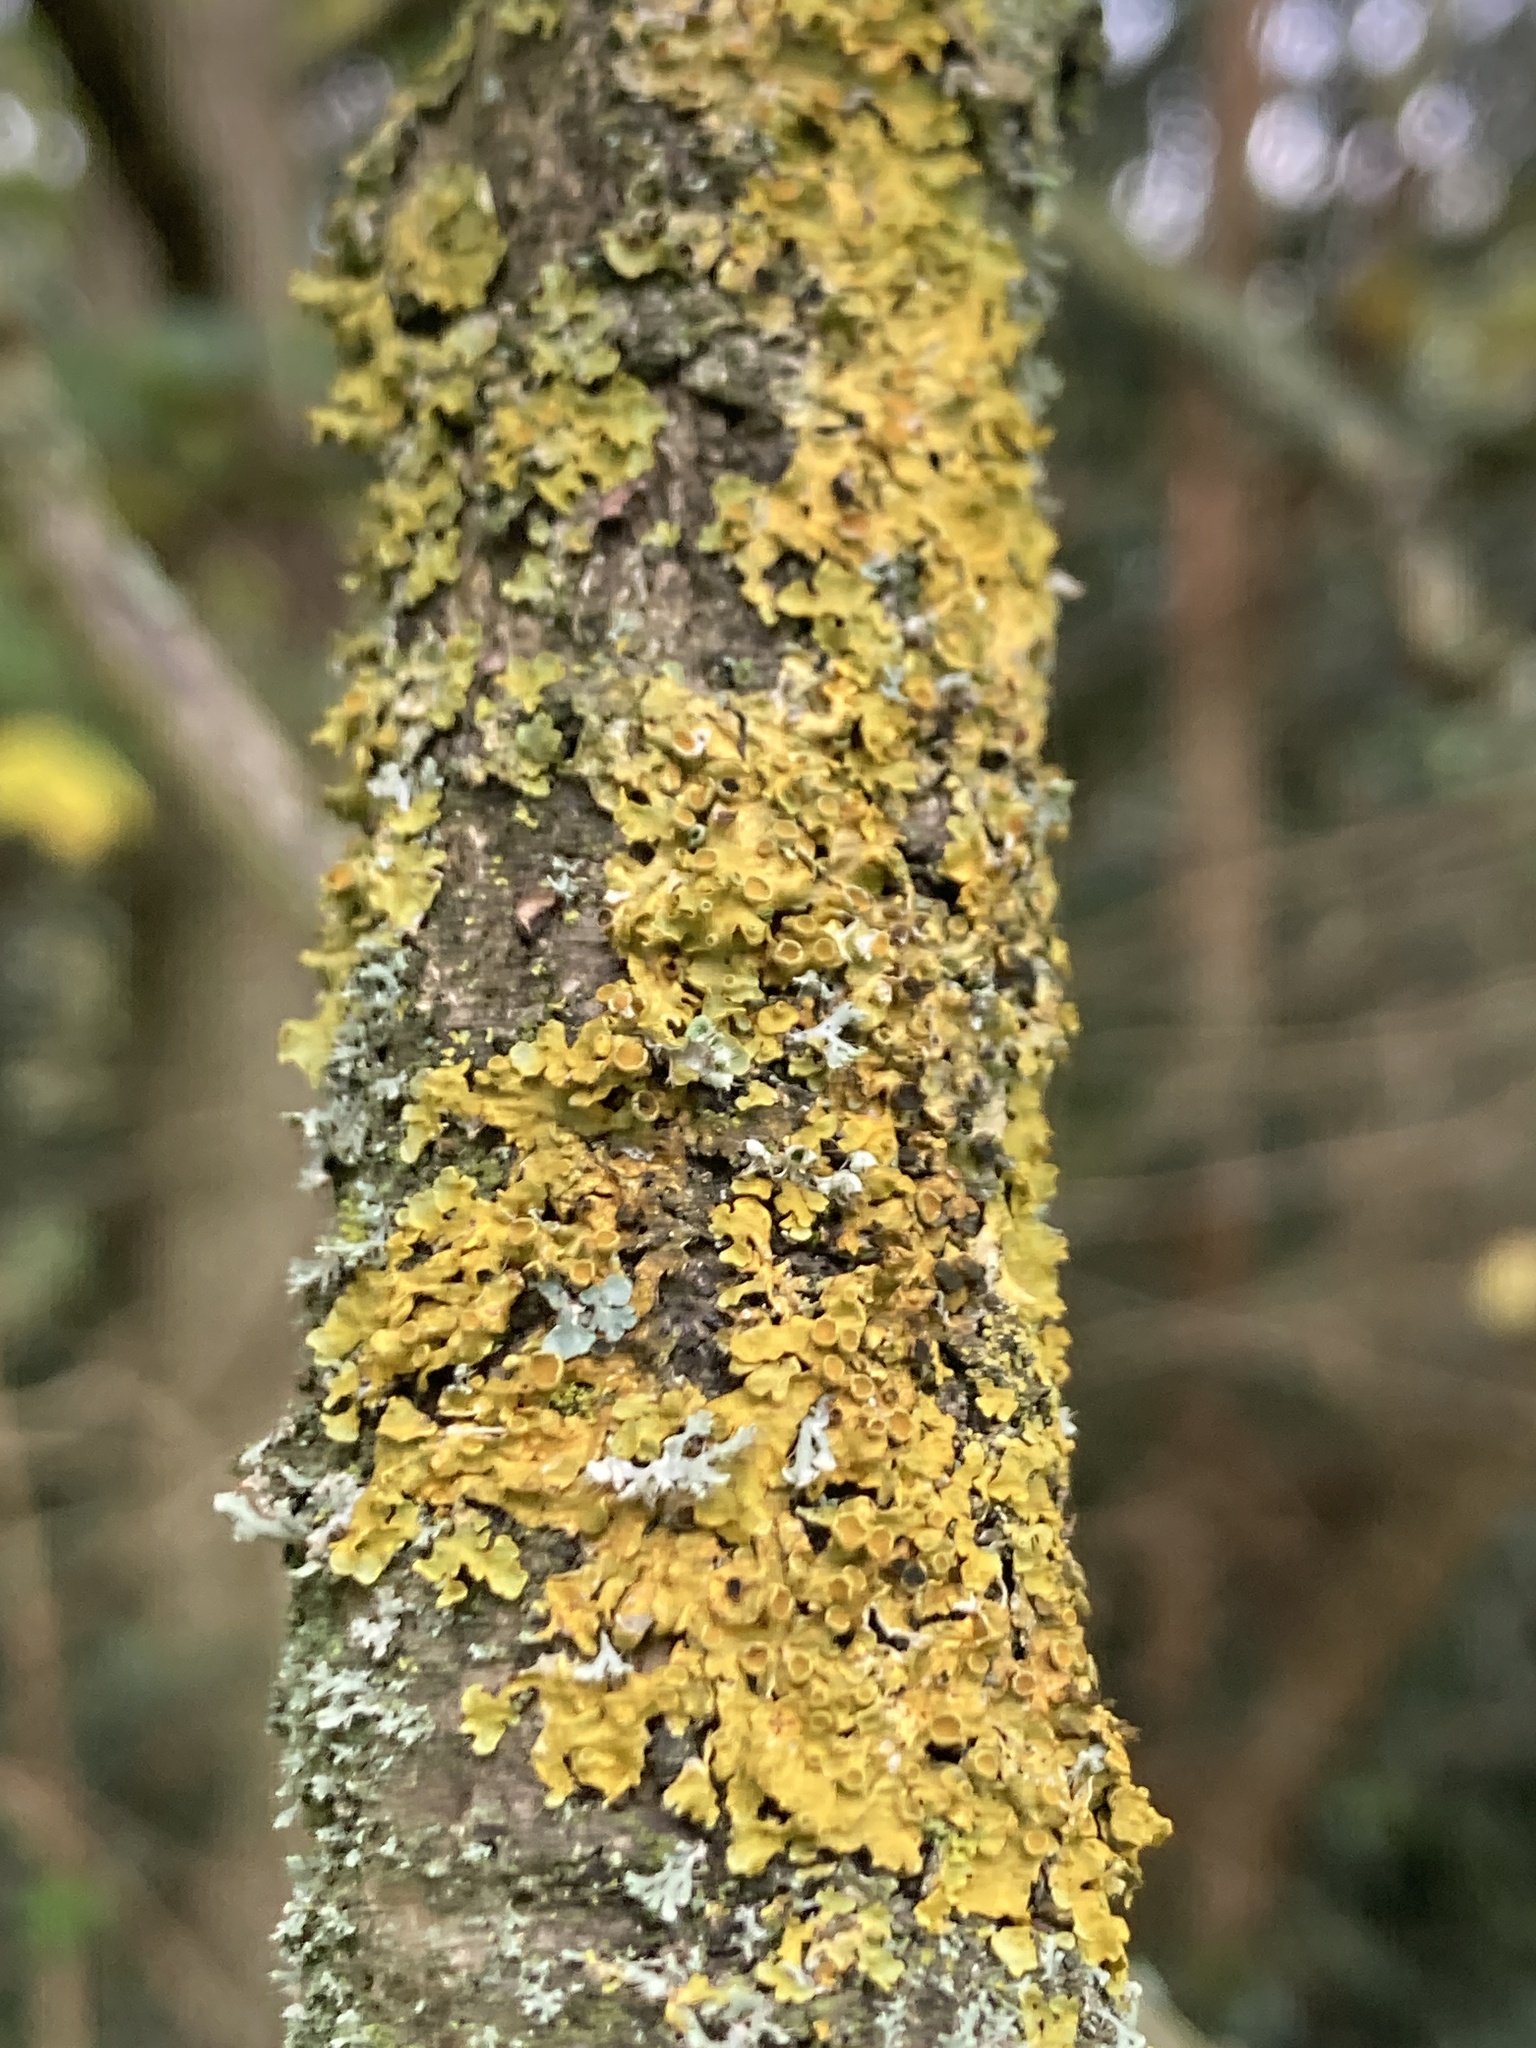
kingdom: Fungi
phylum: Ascomycota
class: Lecanoromycetes
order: Teloschistales
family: Teloschistaceae
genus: Xanthoria
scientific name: Xanthoria parietina
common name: Common orange lichen
